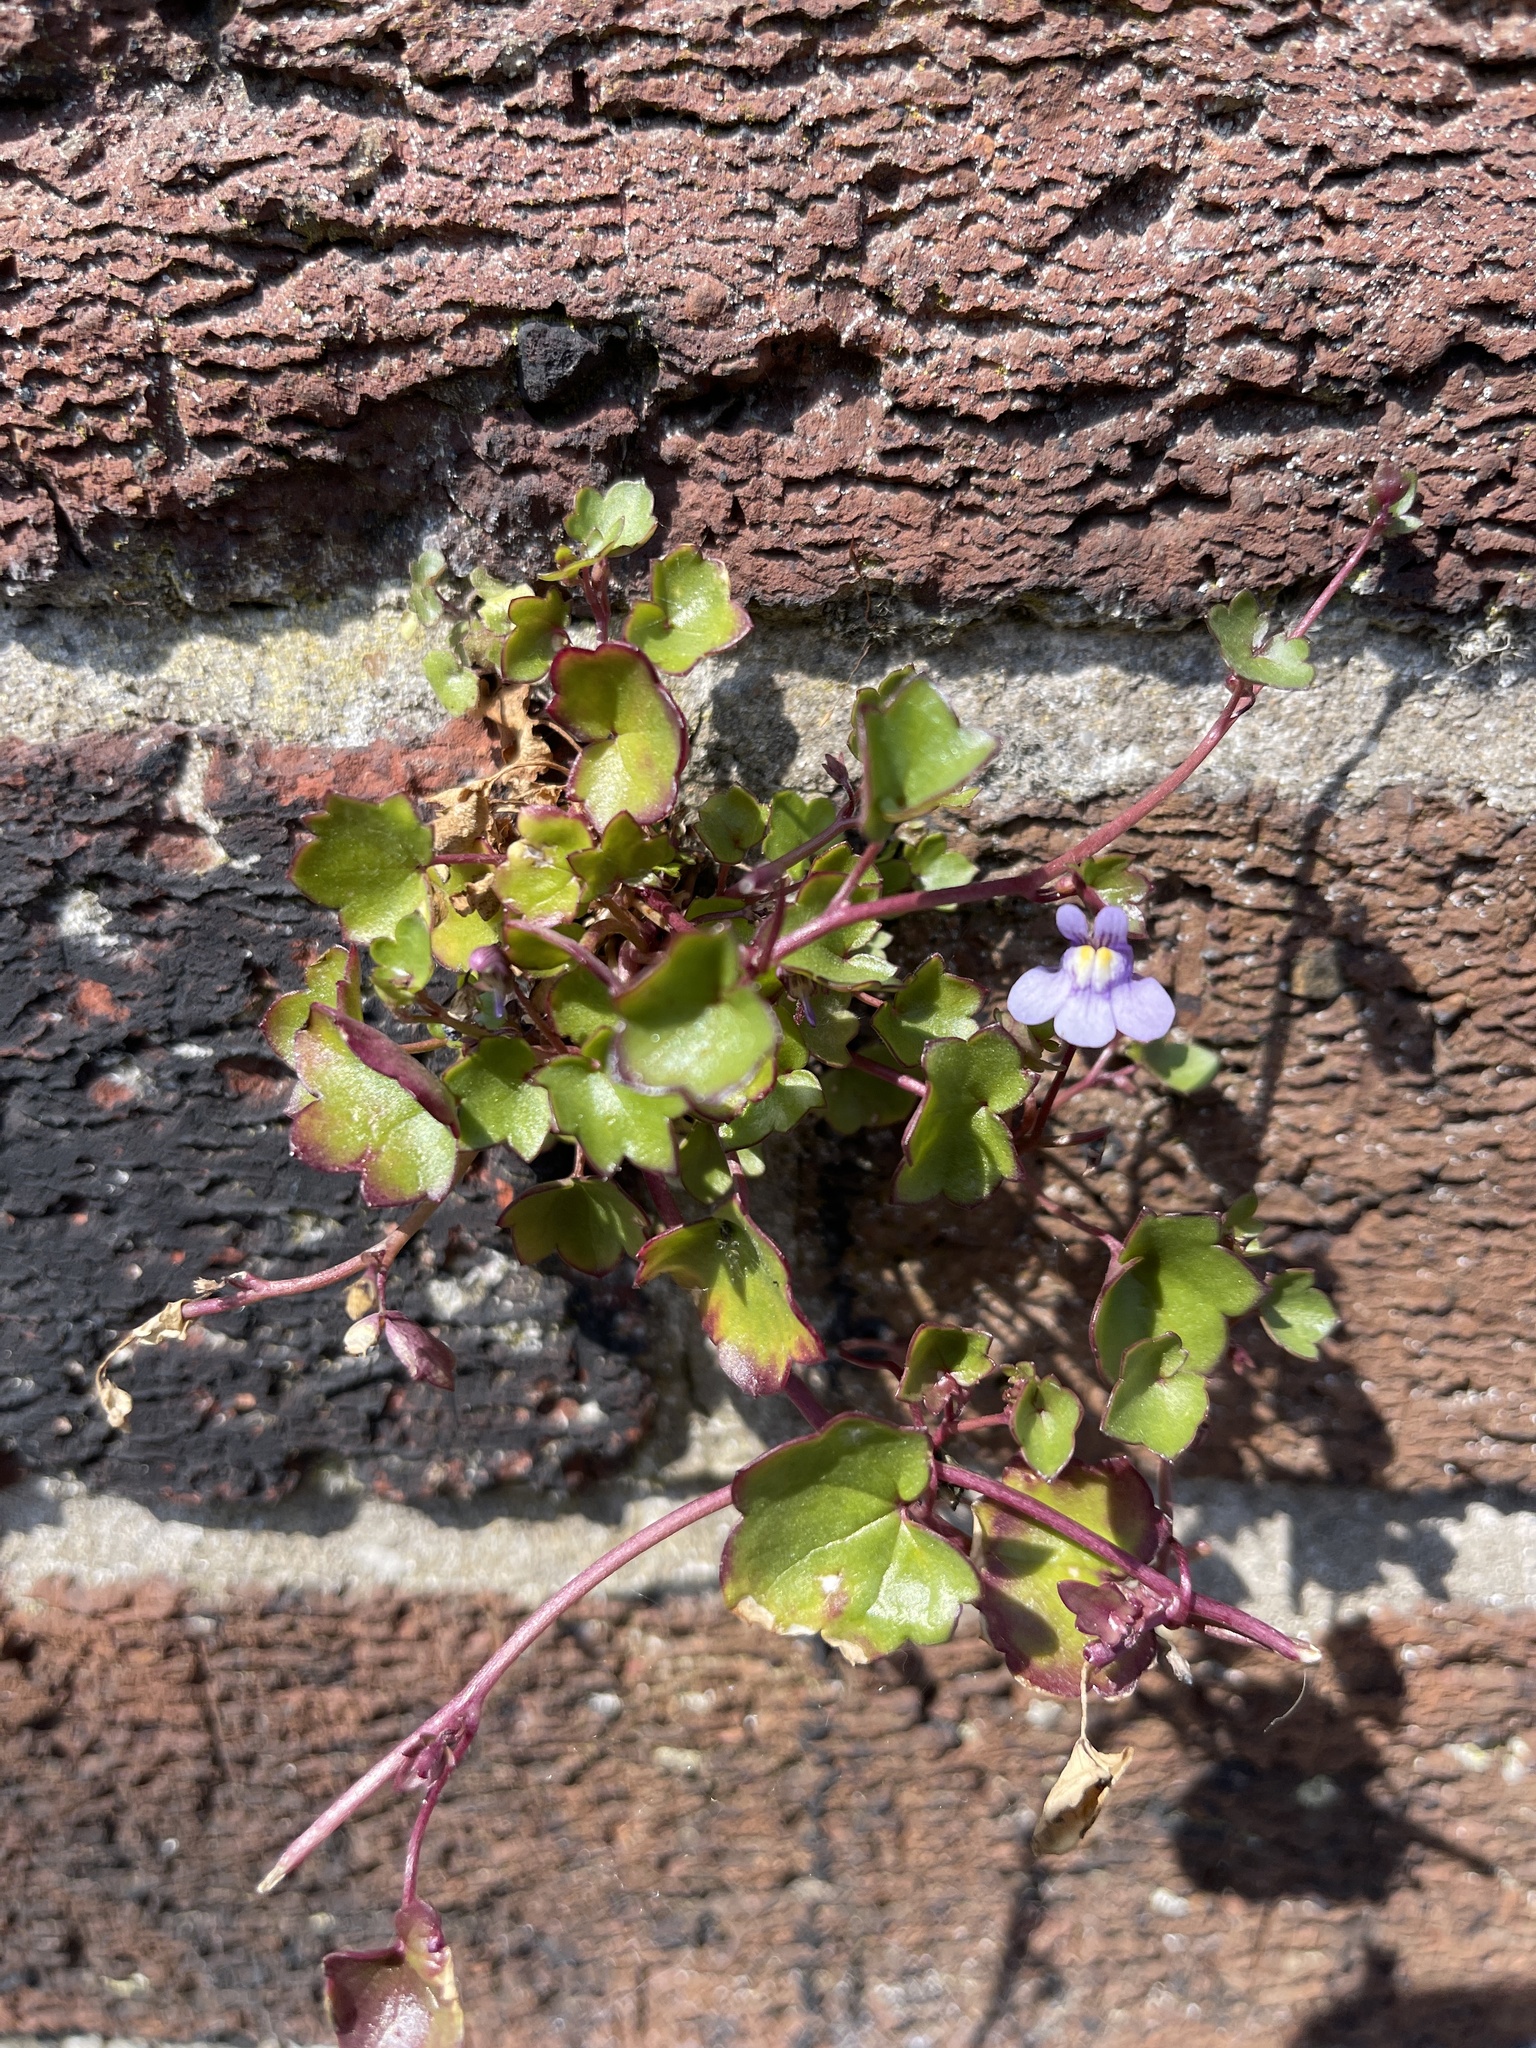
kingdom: Plantae
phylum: Tracheophyta
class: Magnoliopsida
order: Lamiales
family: Plantaginaceae
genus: Cymbalaria
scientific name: Cymbalaria muralis
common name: Ivy-leaved toadflax
